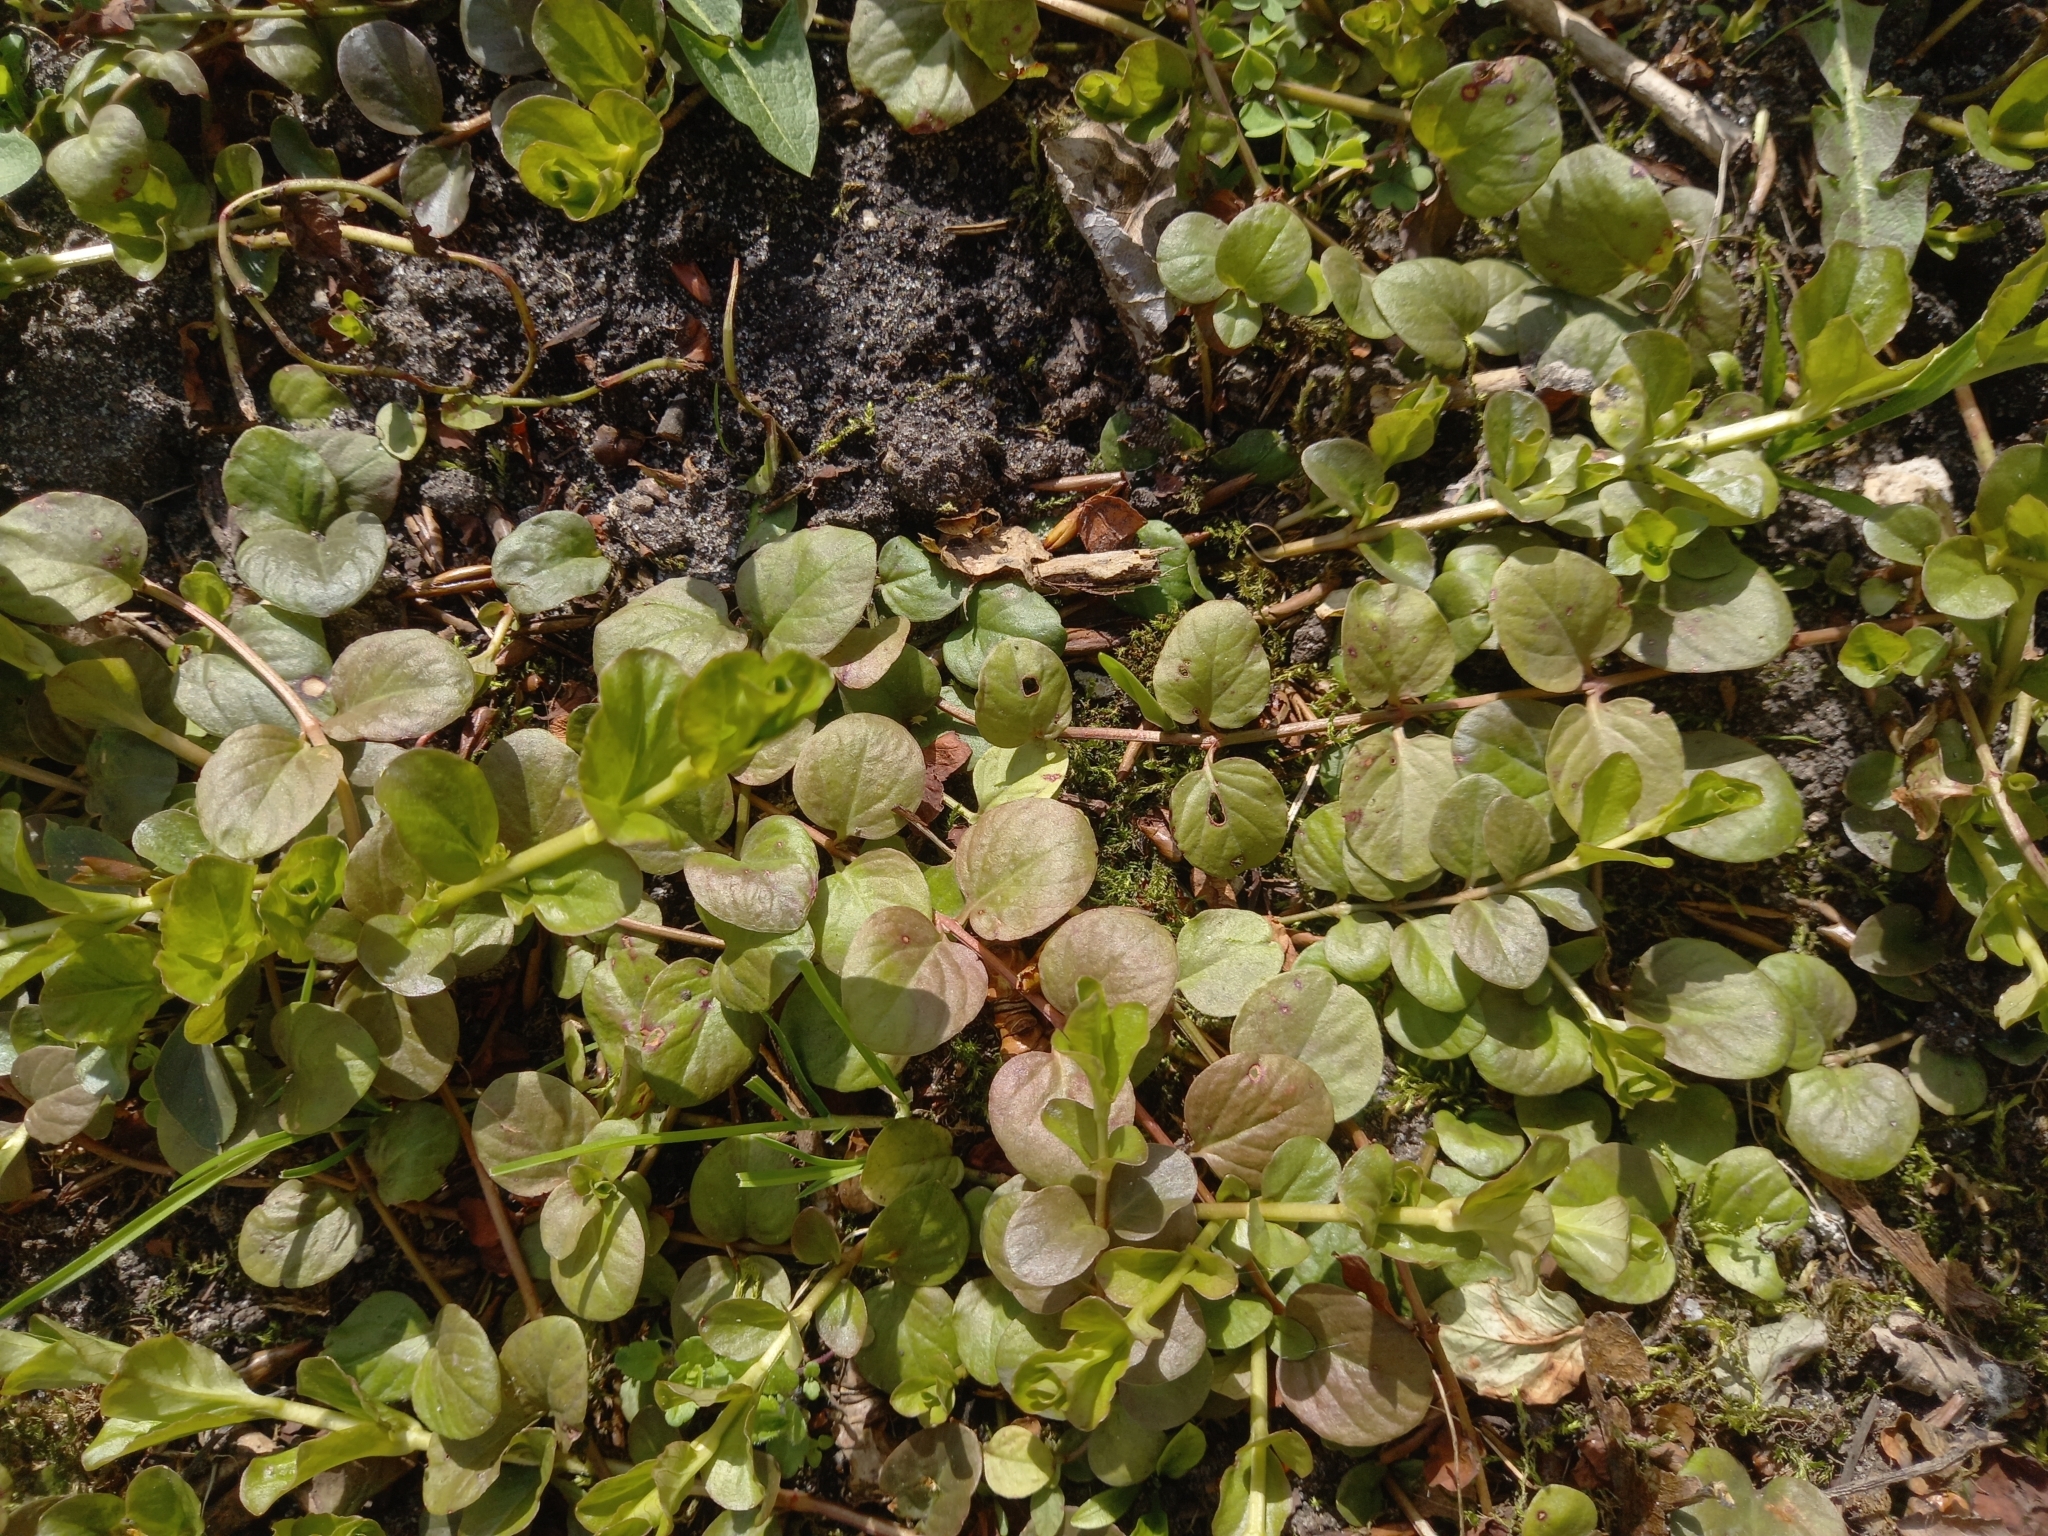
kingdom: Plantae
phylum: Tracheophyta
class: Magnoliopsida
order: Ericales
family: Primulaceae
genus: Lysimachia
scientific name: Lysimachia nummularia
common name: Moneywort
